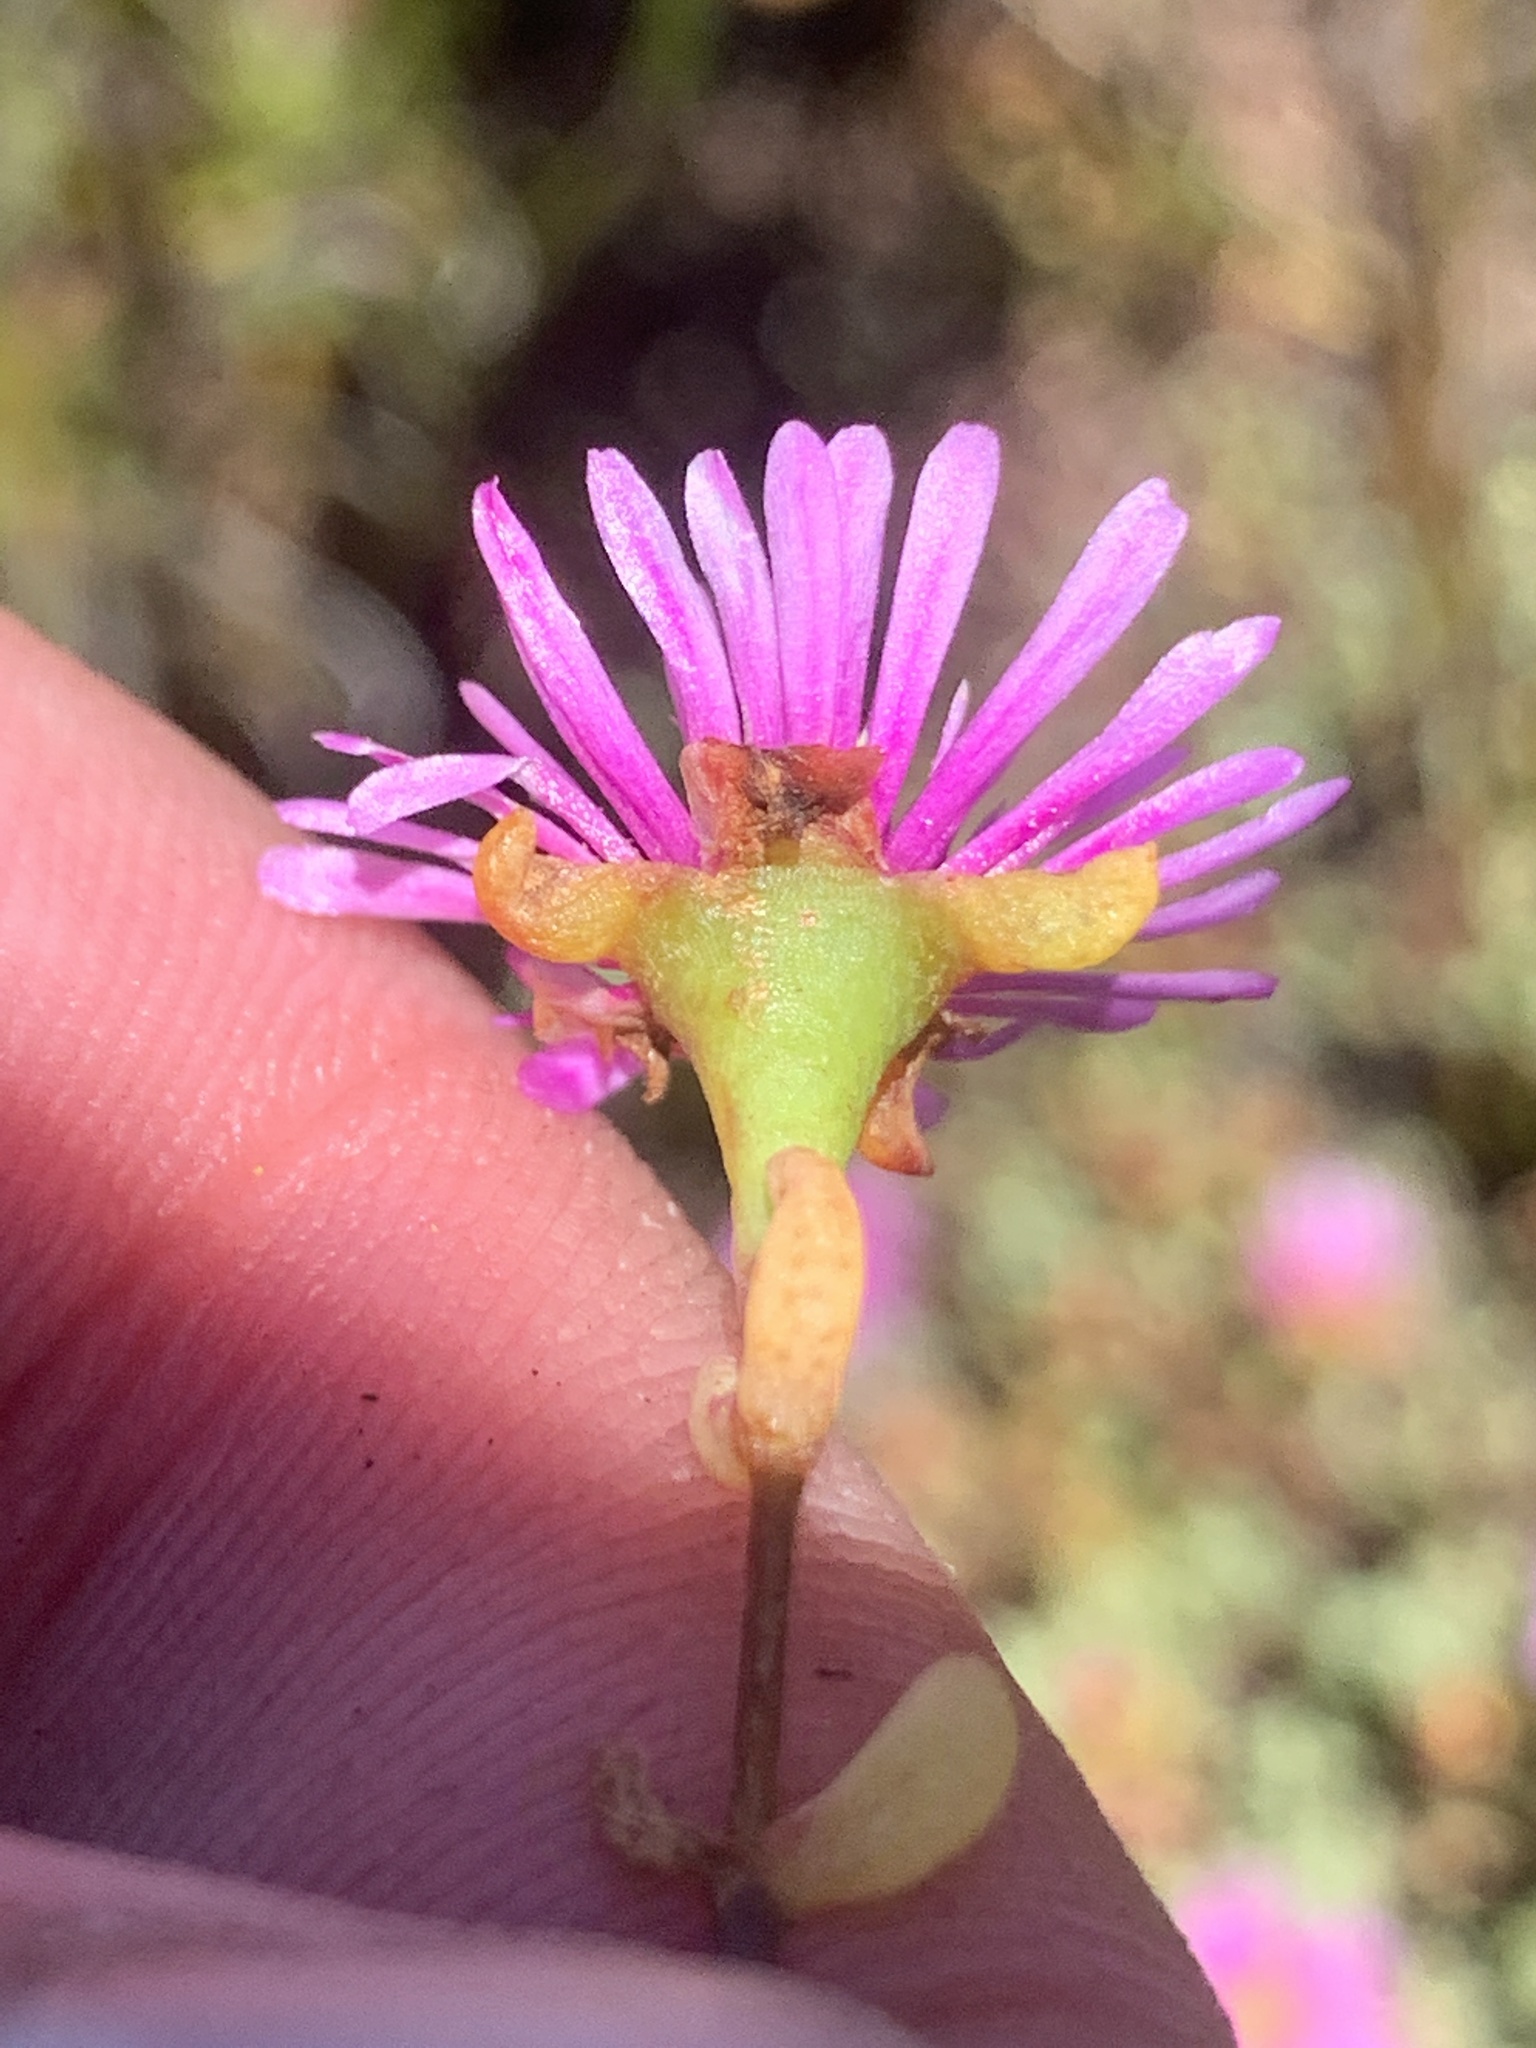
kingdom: Plantae
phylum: Tracheophyta
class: Magnoliopsida
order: Caryophyllales
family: Aizoaceae
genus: Lampranthus
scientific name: Lampranthus glomeratus
